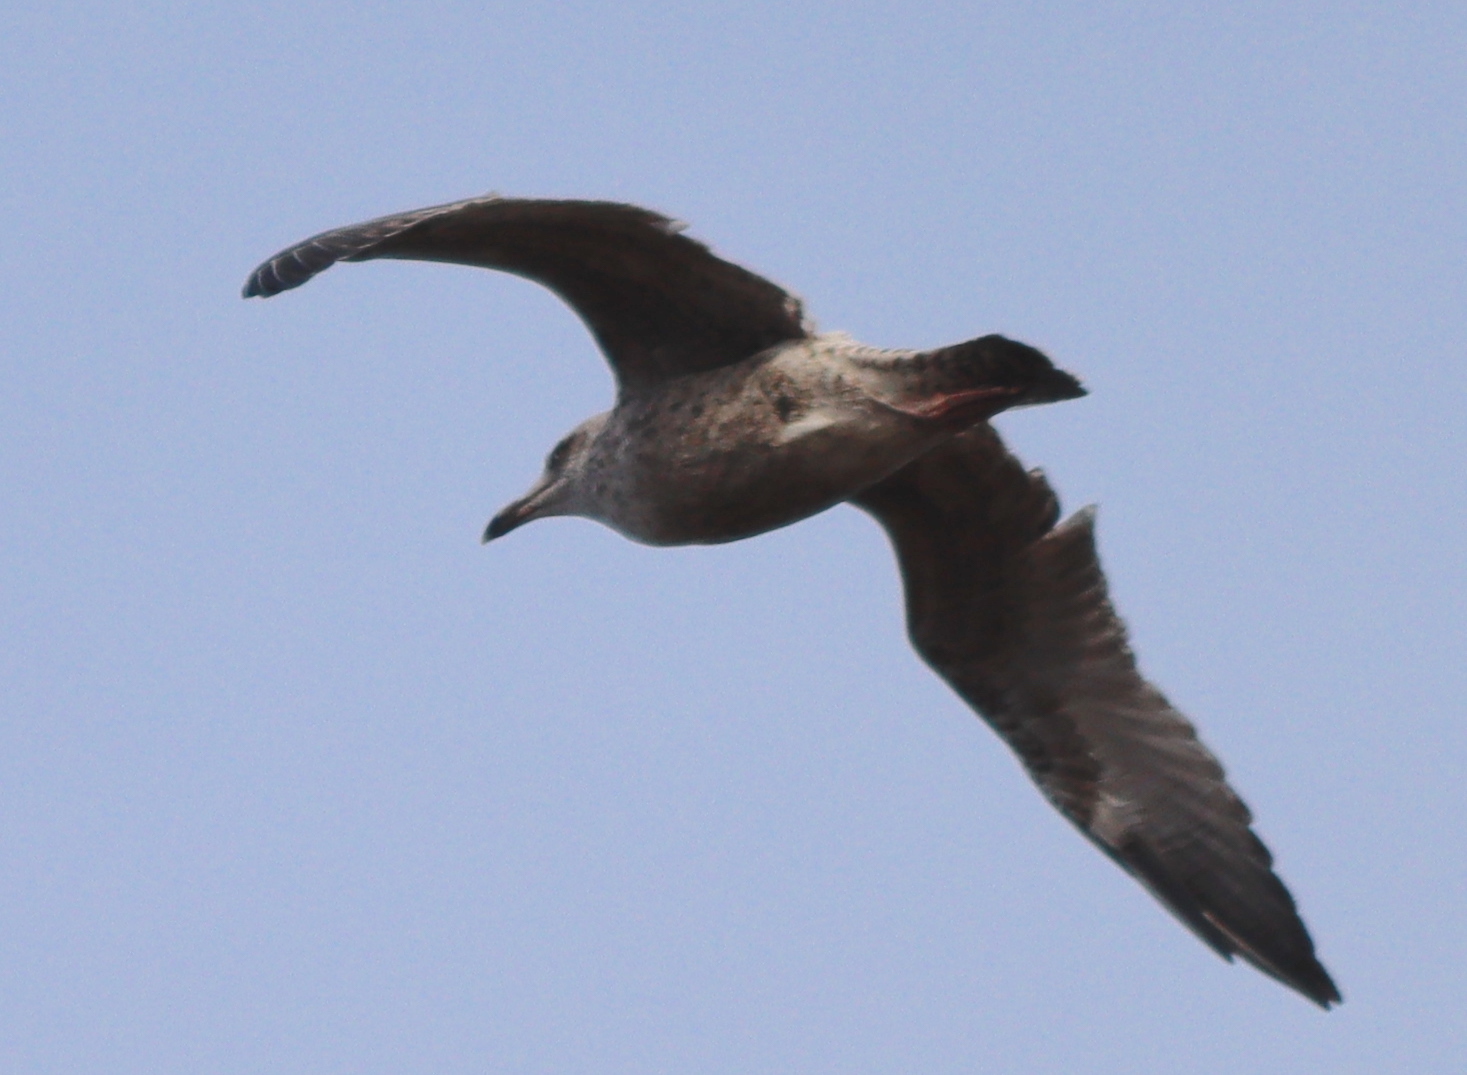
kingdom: Animalia
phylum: Chordata
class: Aves
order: Charadriiformes
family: Laridae
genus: Larus
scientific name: Larus argentatus
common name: Herring gull
